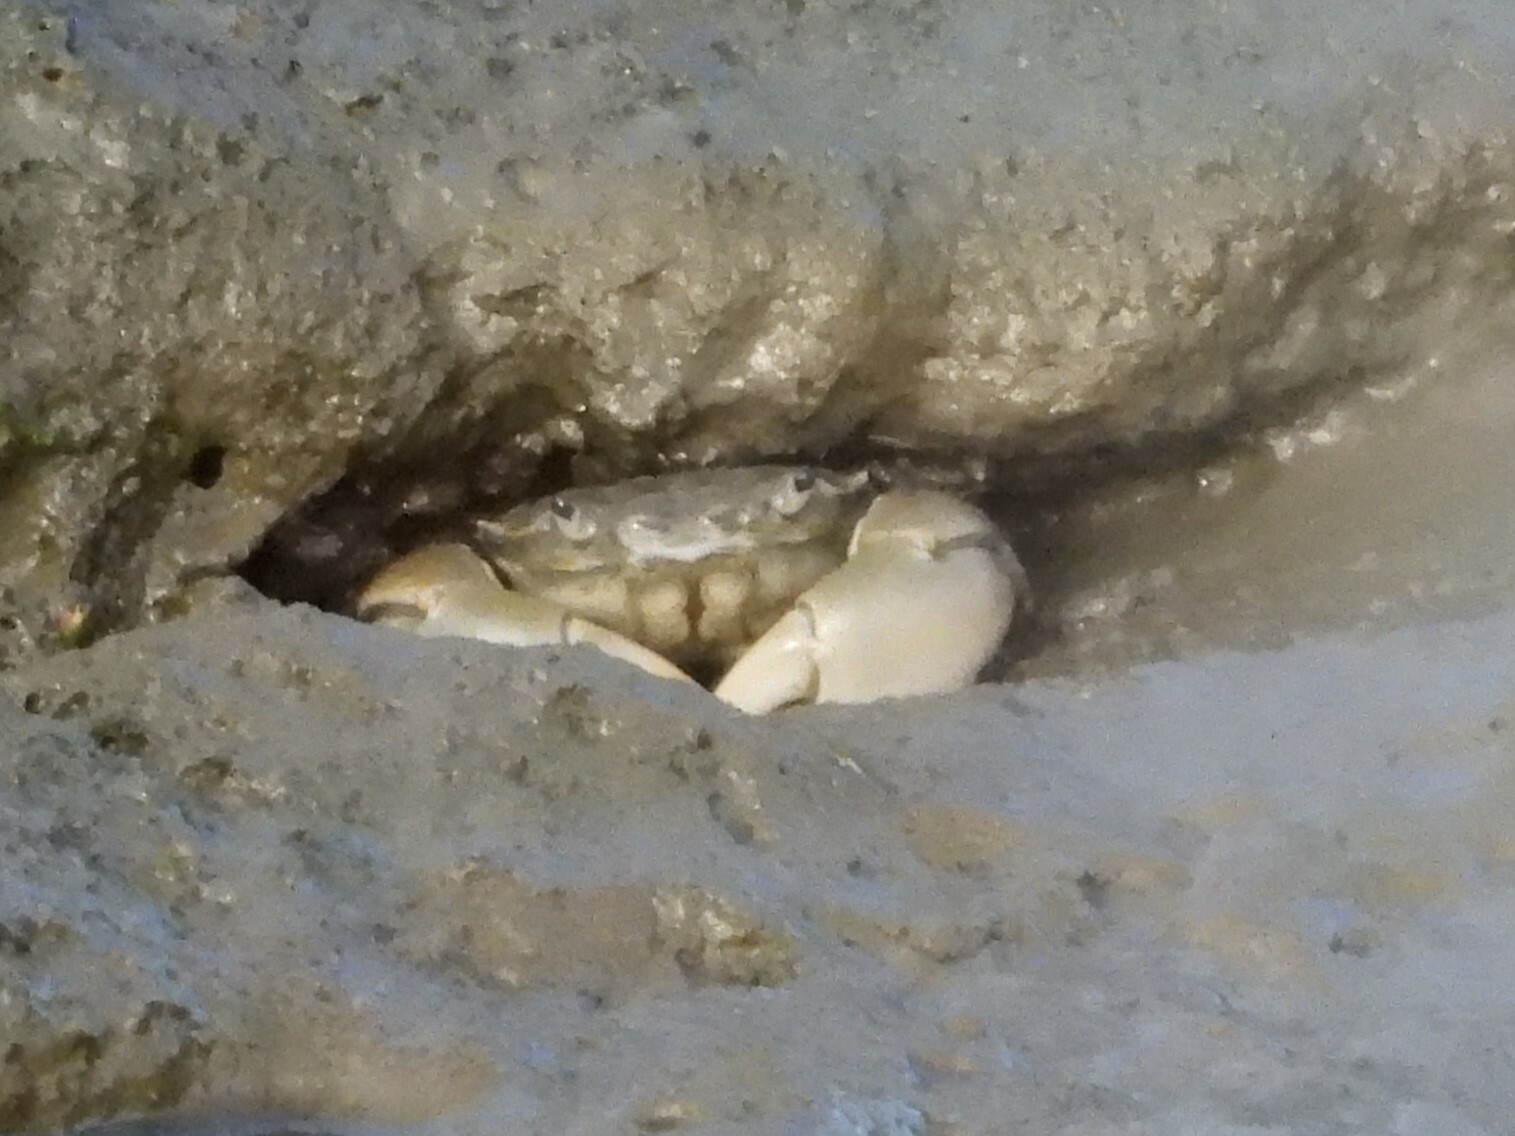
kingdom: Animalia
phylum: Arthropoda
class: Malacostraca
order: Decapoda
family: Varunidae
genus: Hemigrapsus
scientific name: Hemigrapsus oregonensis
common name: Yellow shore crab
